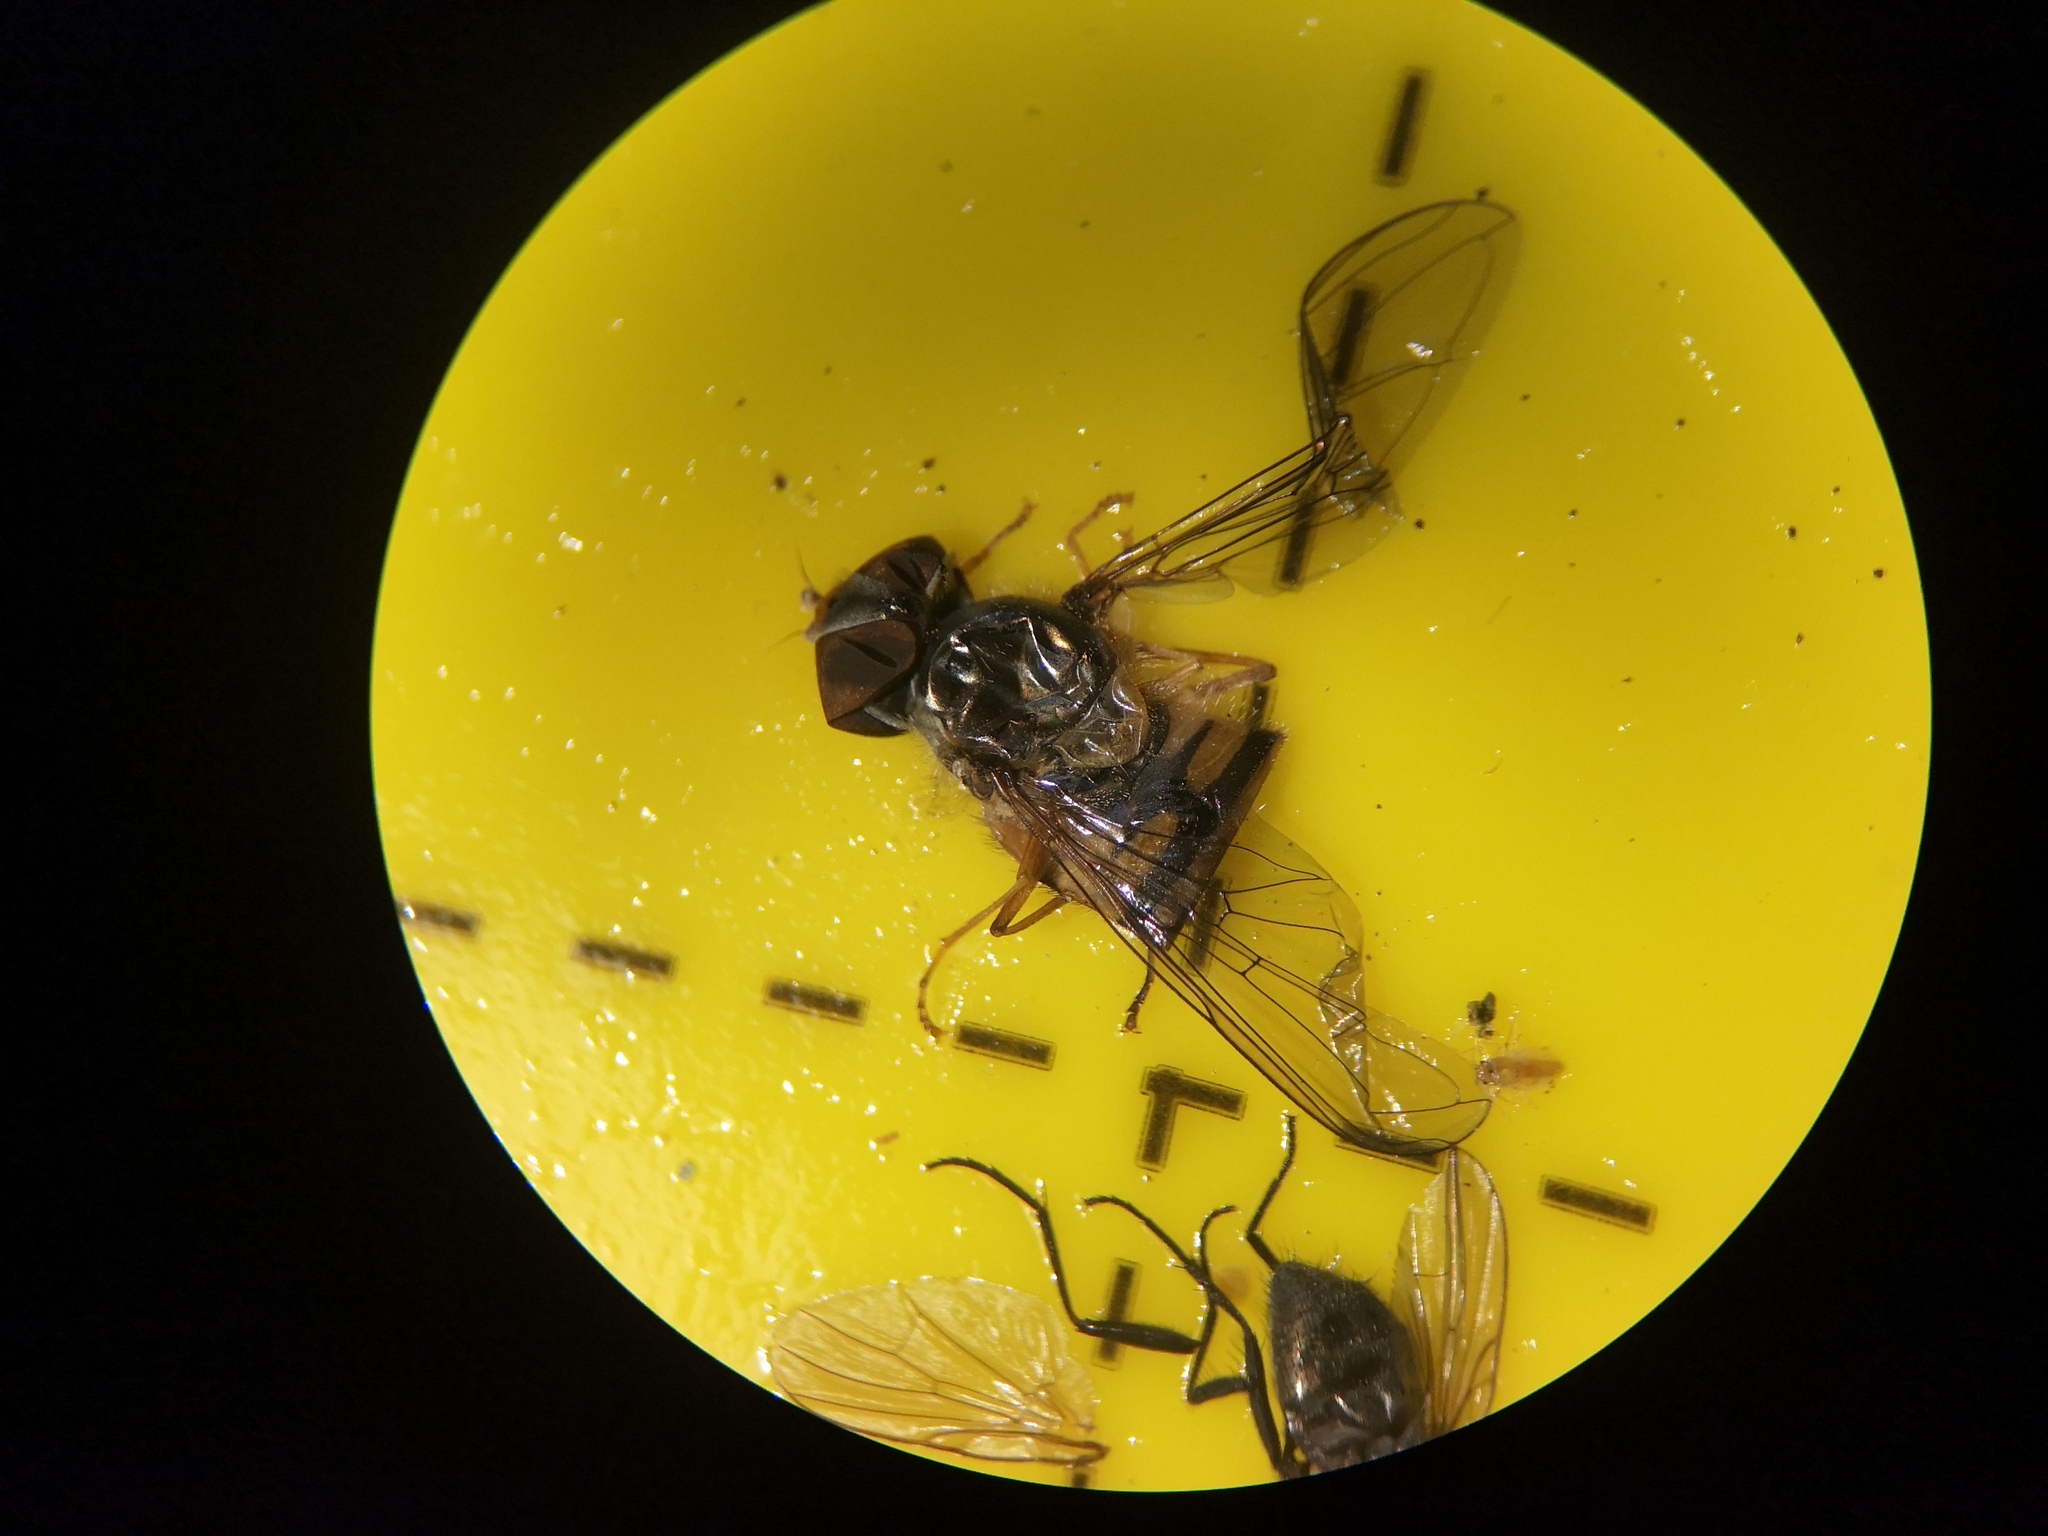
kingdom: Animalia
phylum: Arthropoda
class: Insecta
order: Diptera
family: Syrphidae
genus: Episyrphus
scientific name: Episyrphus balteatus
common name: Marmalade hoverfly
